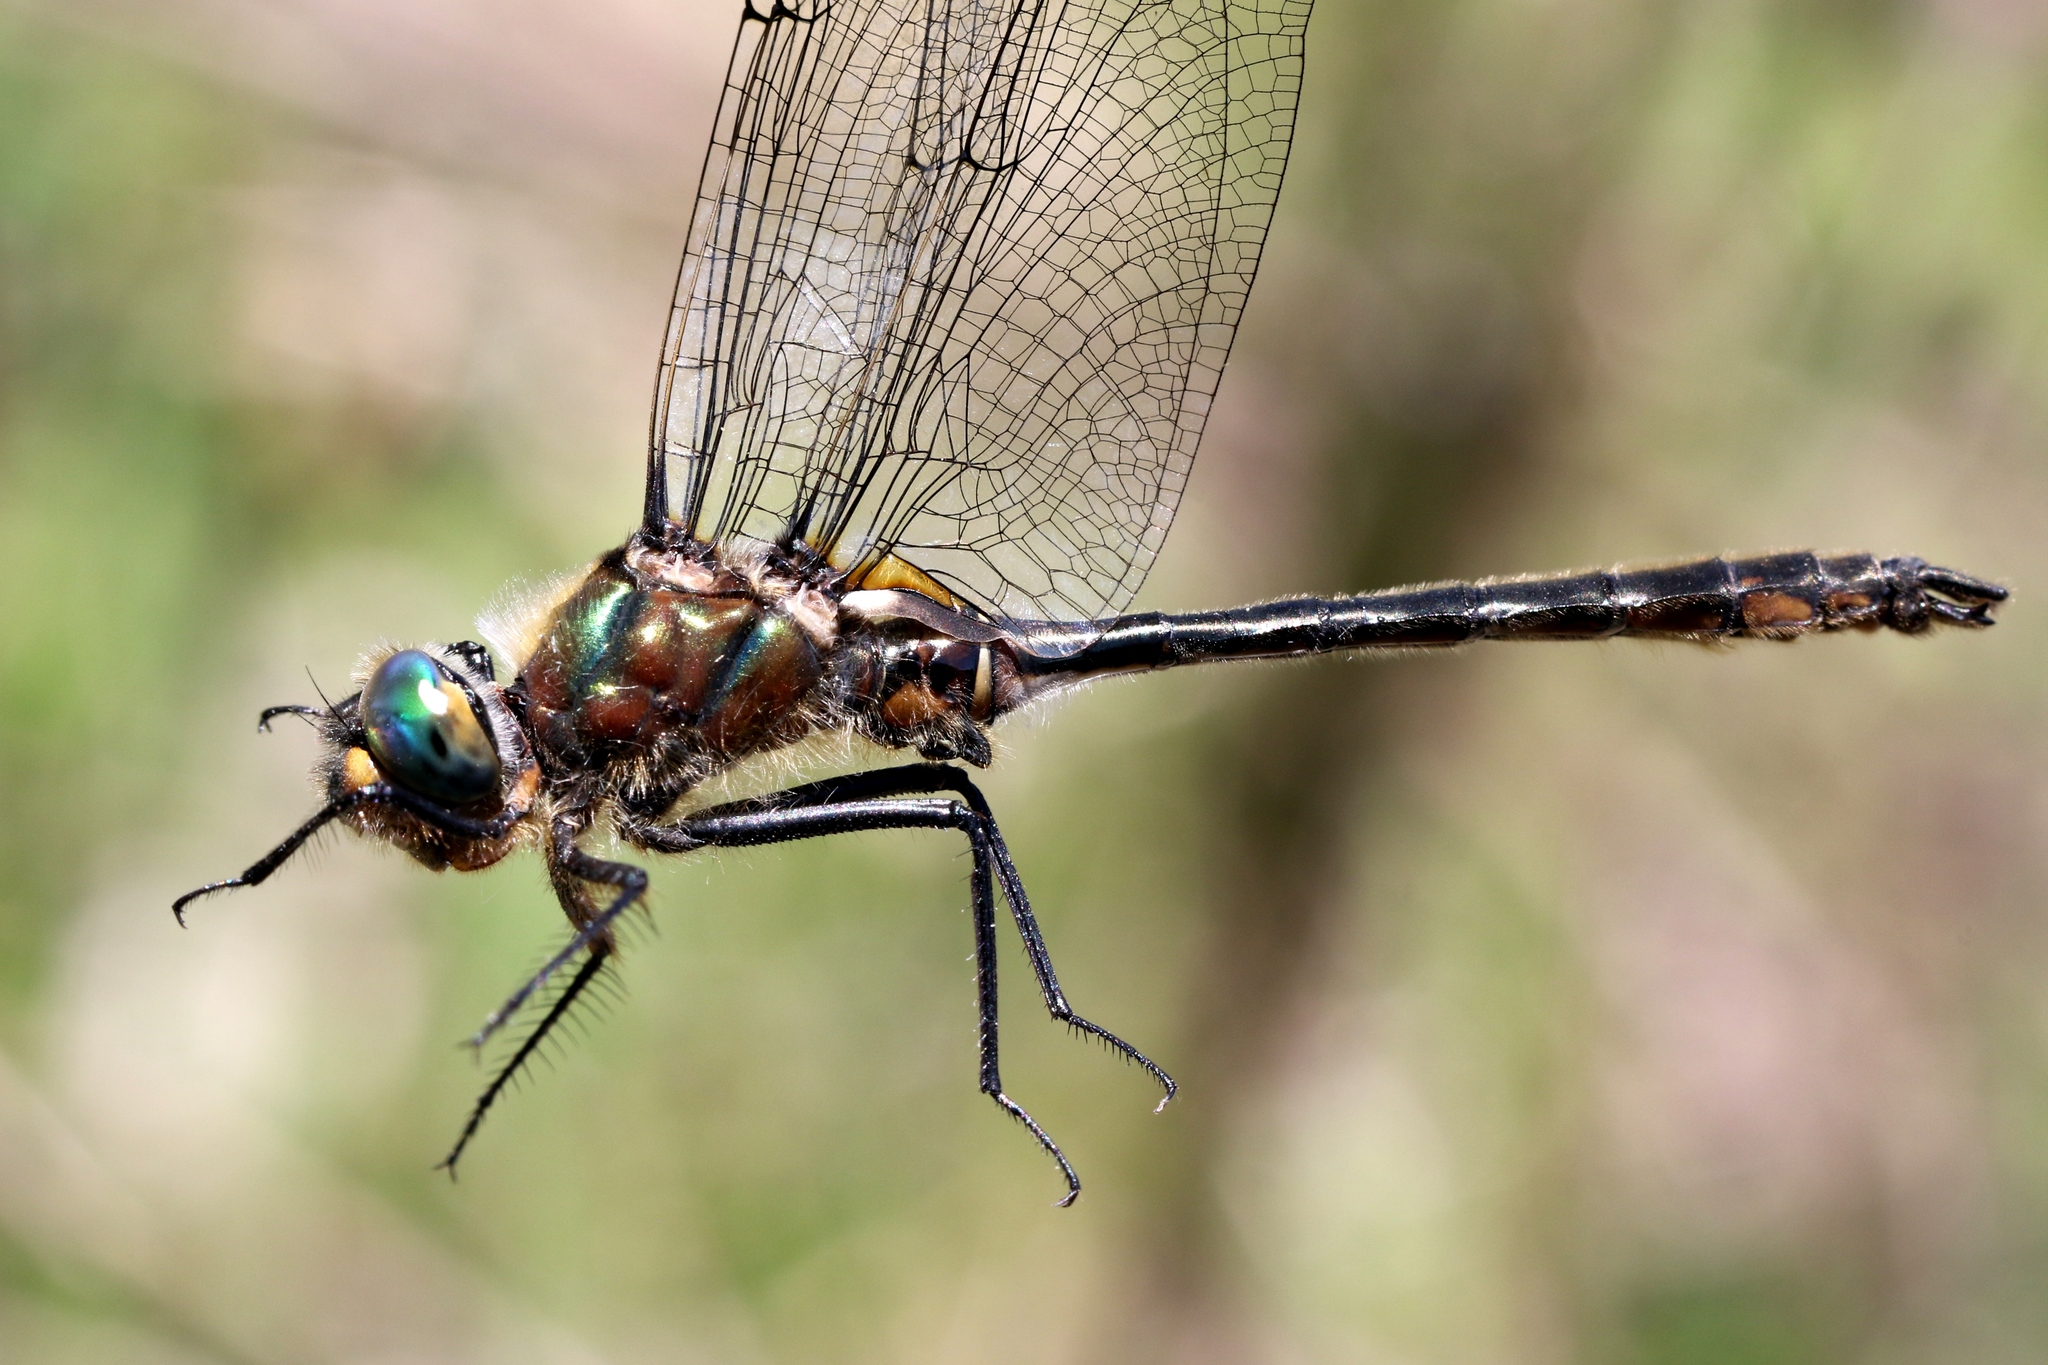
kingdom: Animalia
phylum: Arthropoda
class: Insecta
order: Odonata
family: Corduliidae
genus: Cordulia
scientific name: Cordulia shurtleffii
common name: American emerald
